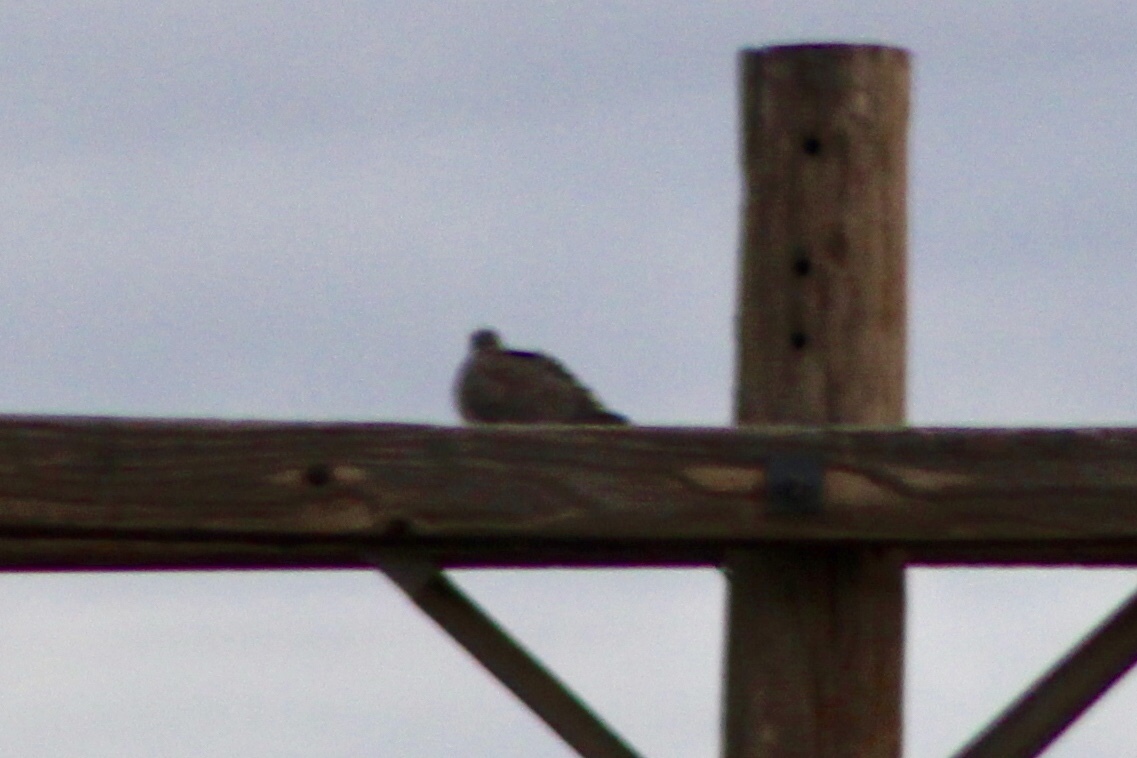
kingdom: Animalia
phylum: Chordata
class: Aves
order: Columbiformes
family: Columbidae
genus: Streptopelia
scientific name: Streptopelia decaocto
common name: Eurasian collared dove
